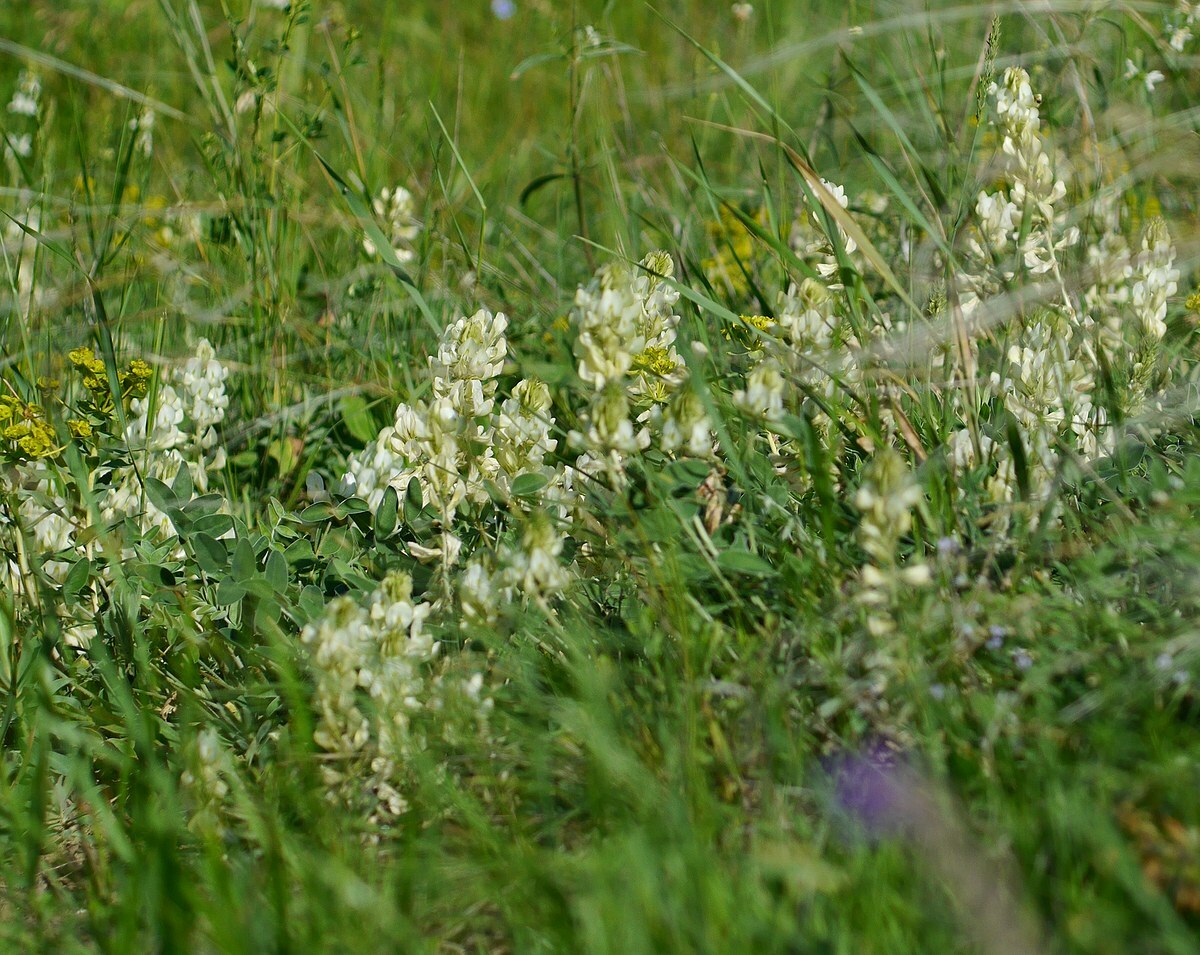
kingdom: Plantae
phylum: Tracheophyta
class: Magnoliopsida
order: Fabales
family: Fabaceae
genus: Hedysarum
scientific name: Hedysarum grandiflorum
